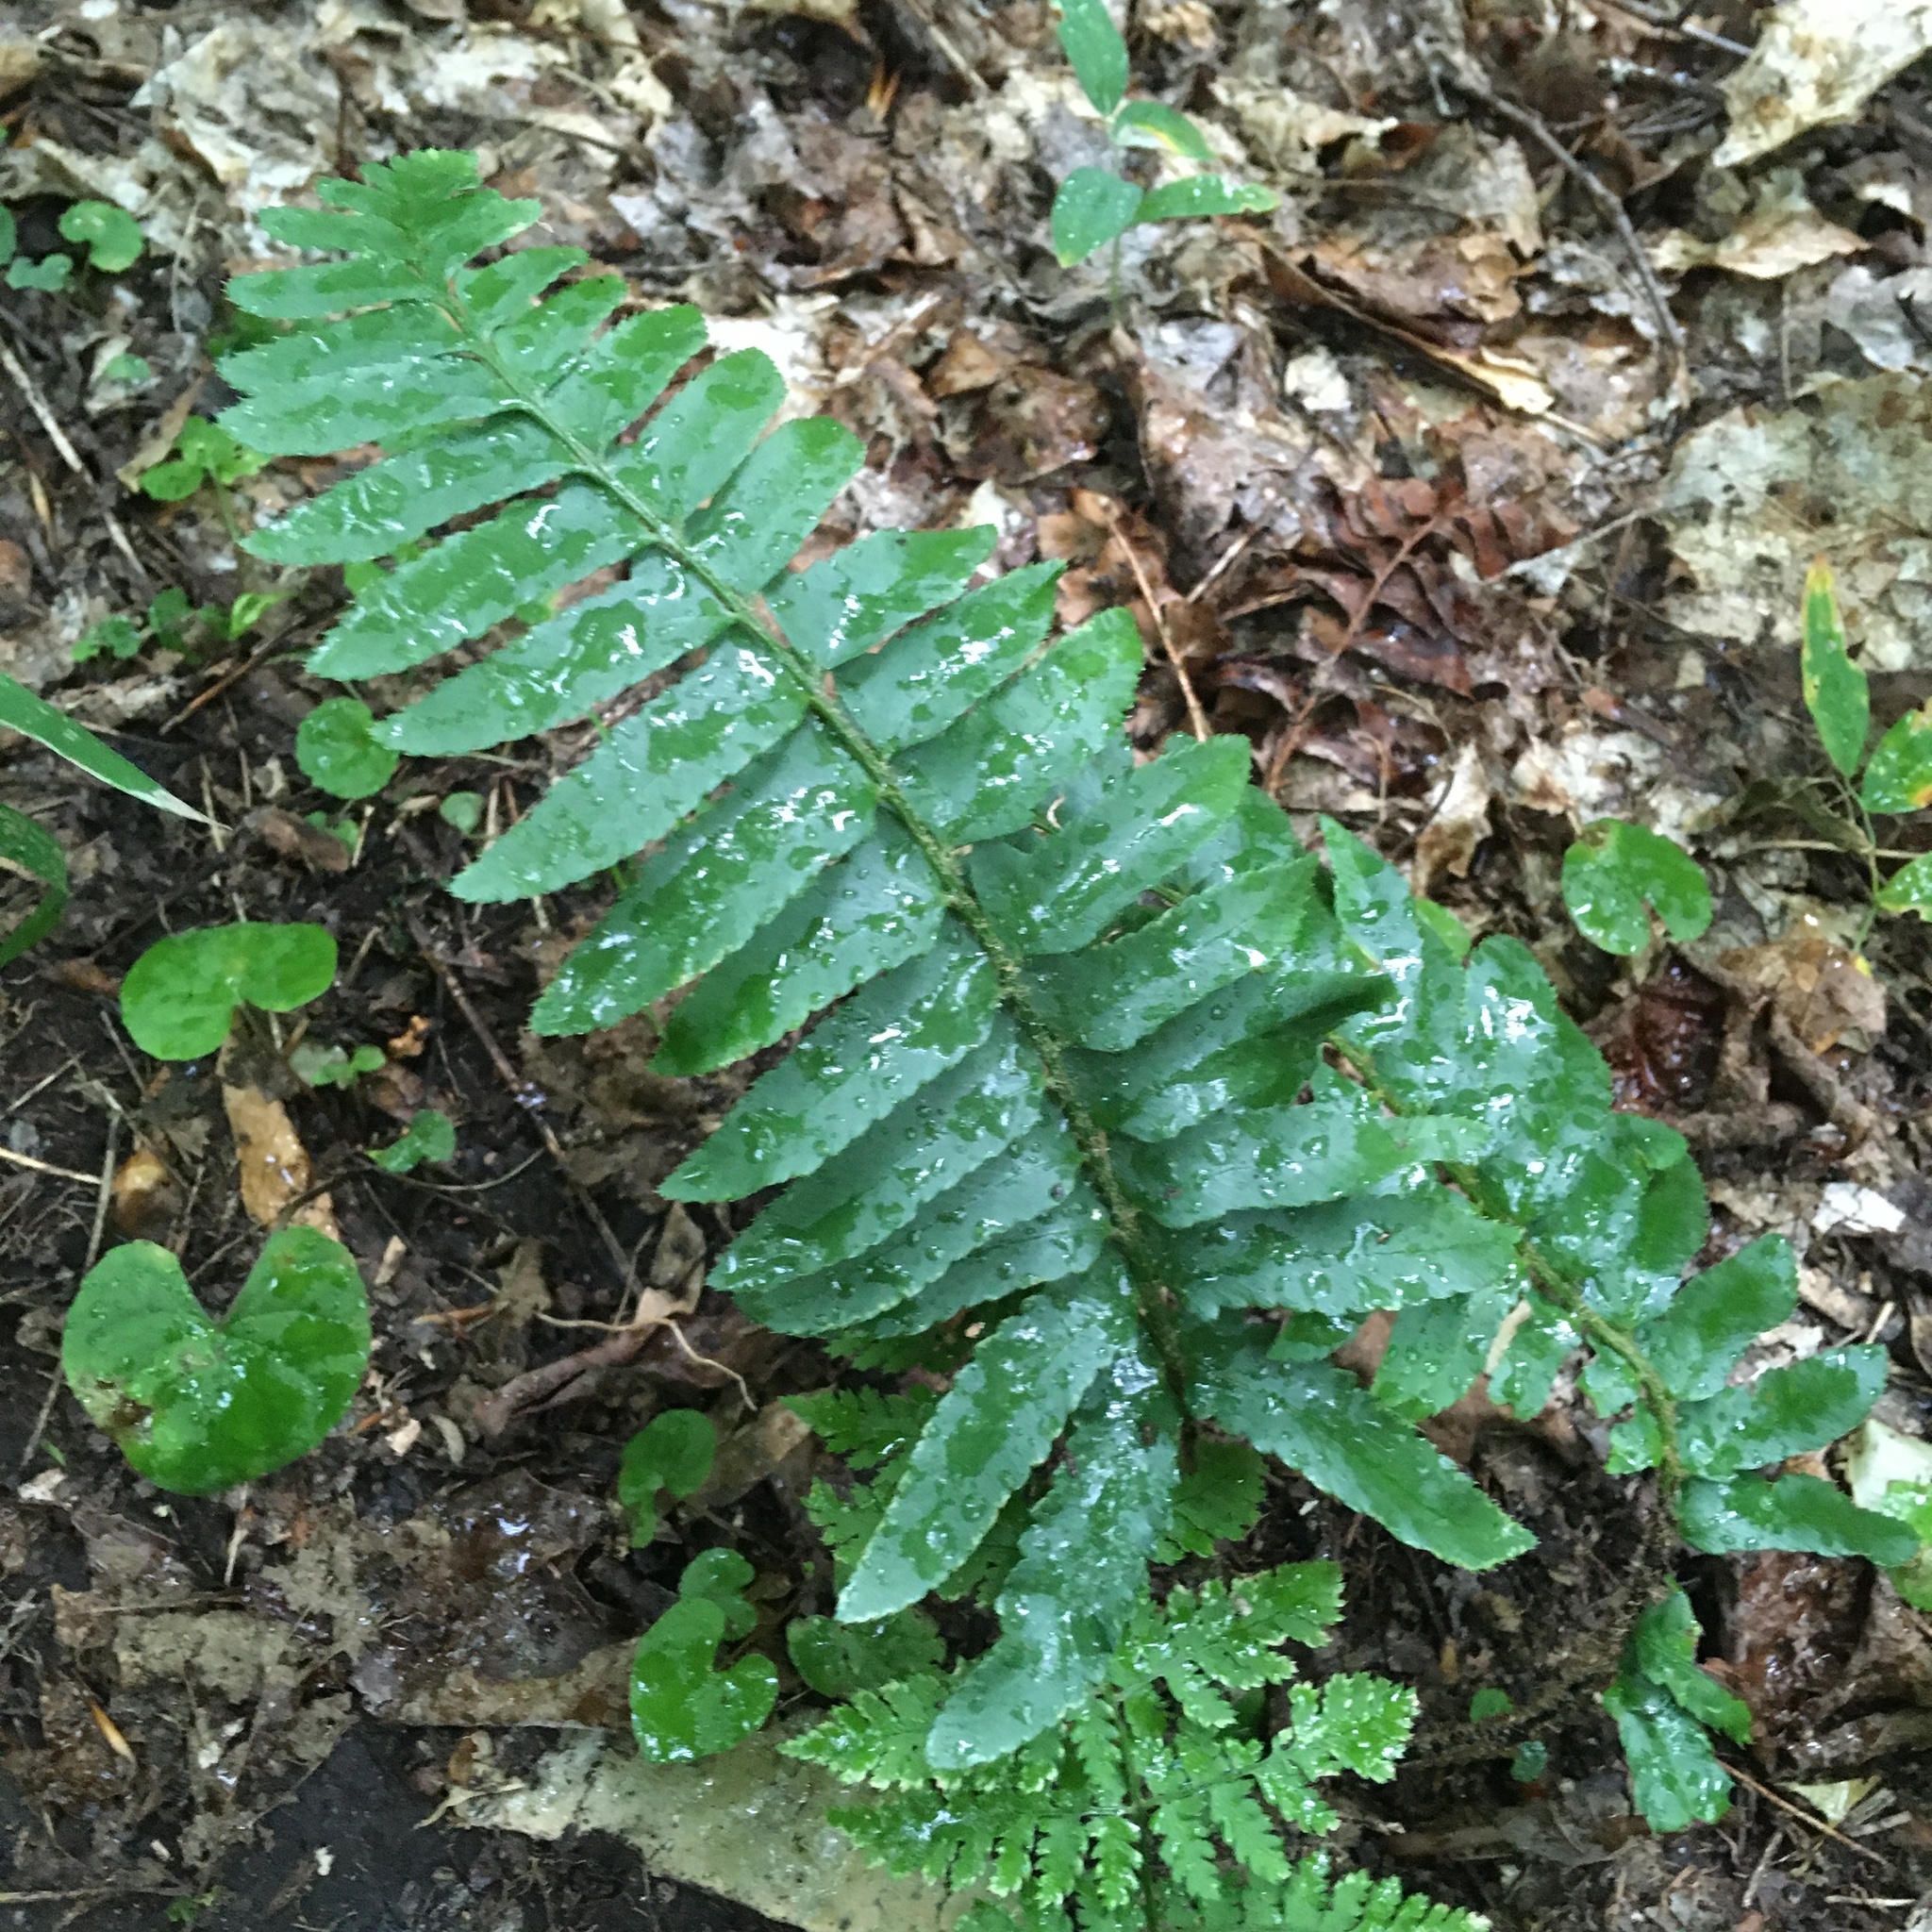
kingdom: Plantae
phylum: Tracheophyta
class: Polypodiopsida
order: Polypodiales
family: Dryopteridaceae
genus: Polystichum
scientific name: Polystichum acrostichoides
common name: Christmas fern
